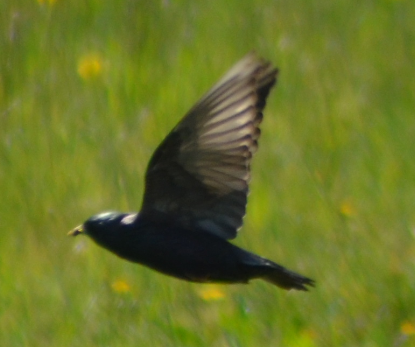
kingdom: Animalia
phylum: Chordata
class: Aves
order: Passeriformes
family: Sturnidae
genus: Sturnus
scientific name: Sturnus unicolor
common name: Spotless starling
